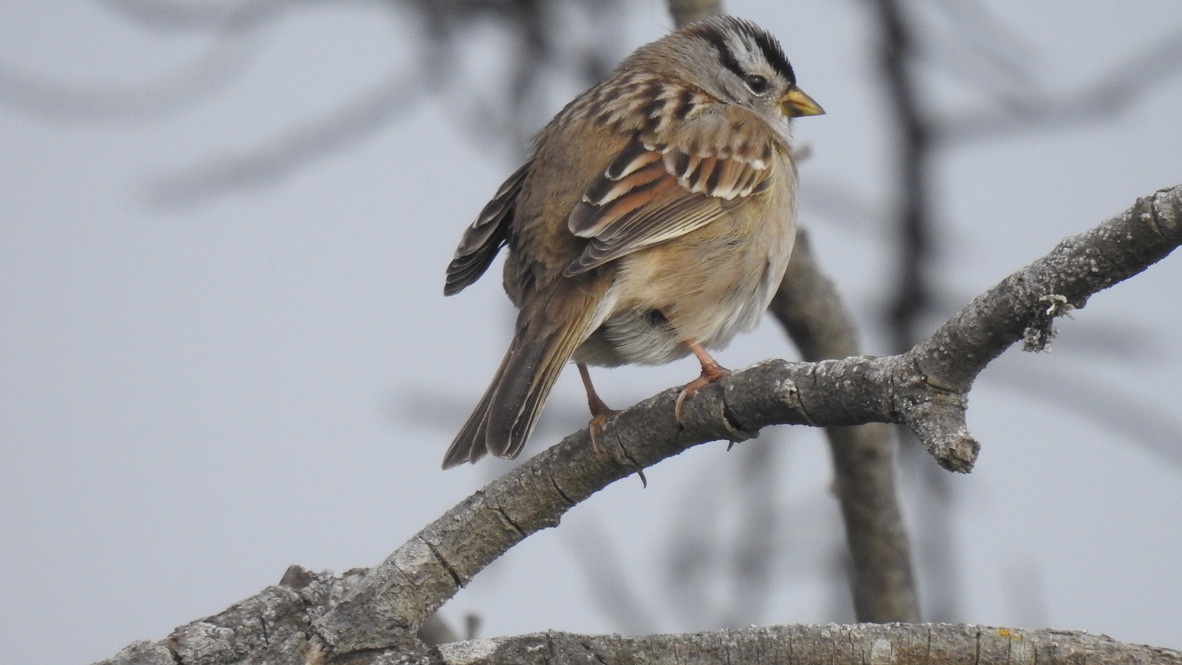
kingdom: Animalia
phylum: Chordata
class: Aves
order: Passeriformes
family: Passerellidae
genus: Zonotrichia
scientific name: Zonotrichia leucophrys
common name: White-crowned sparrow
